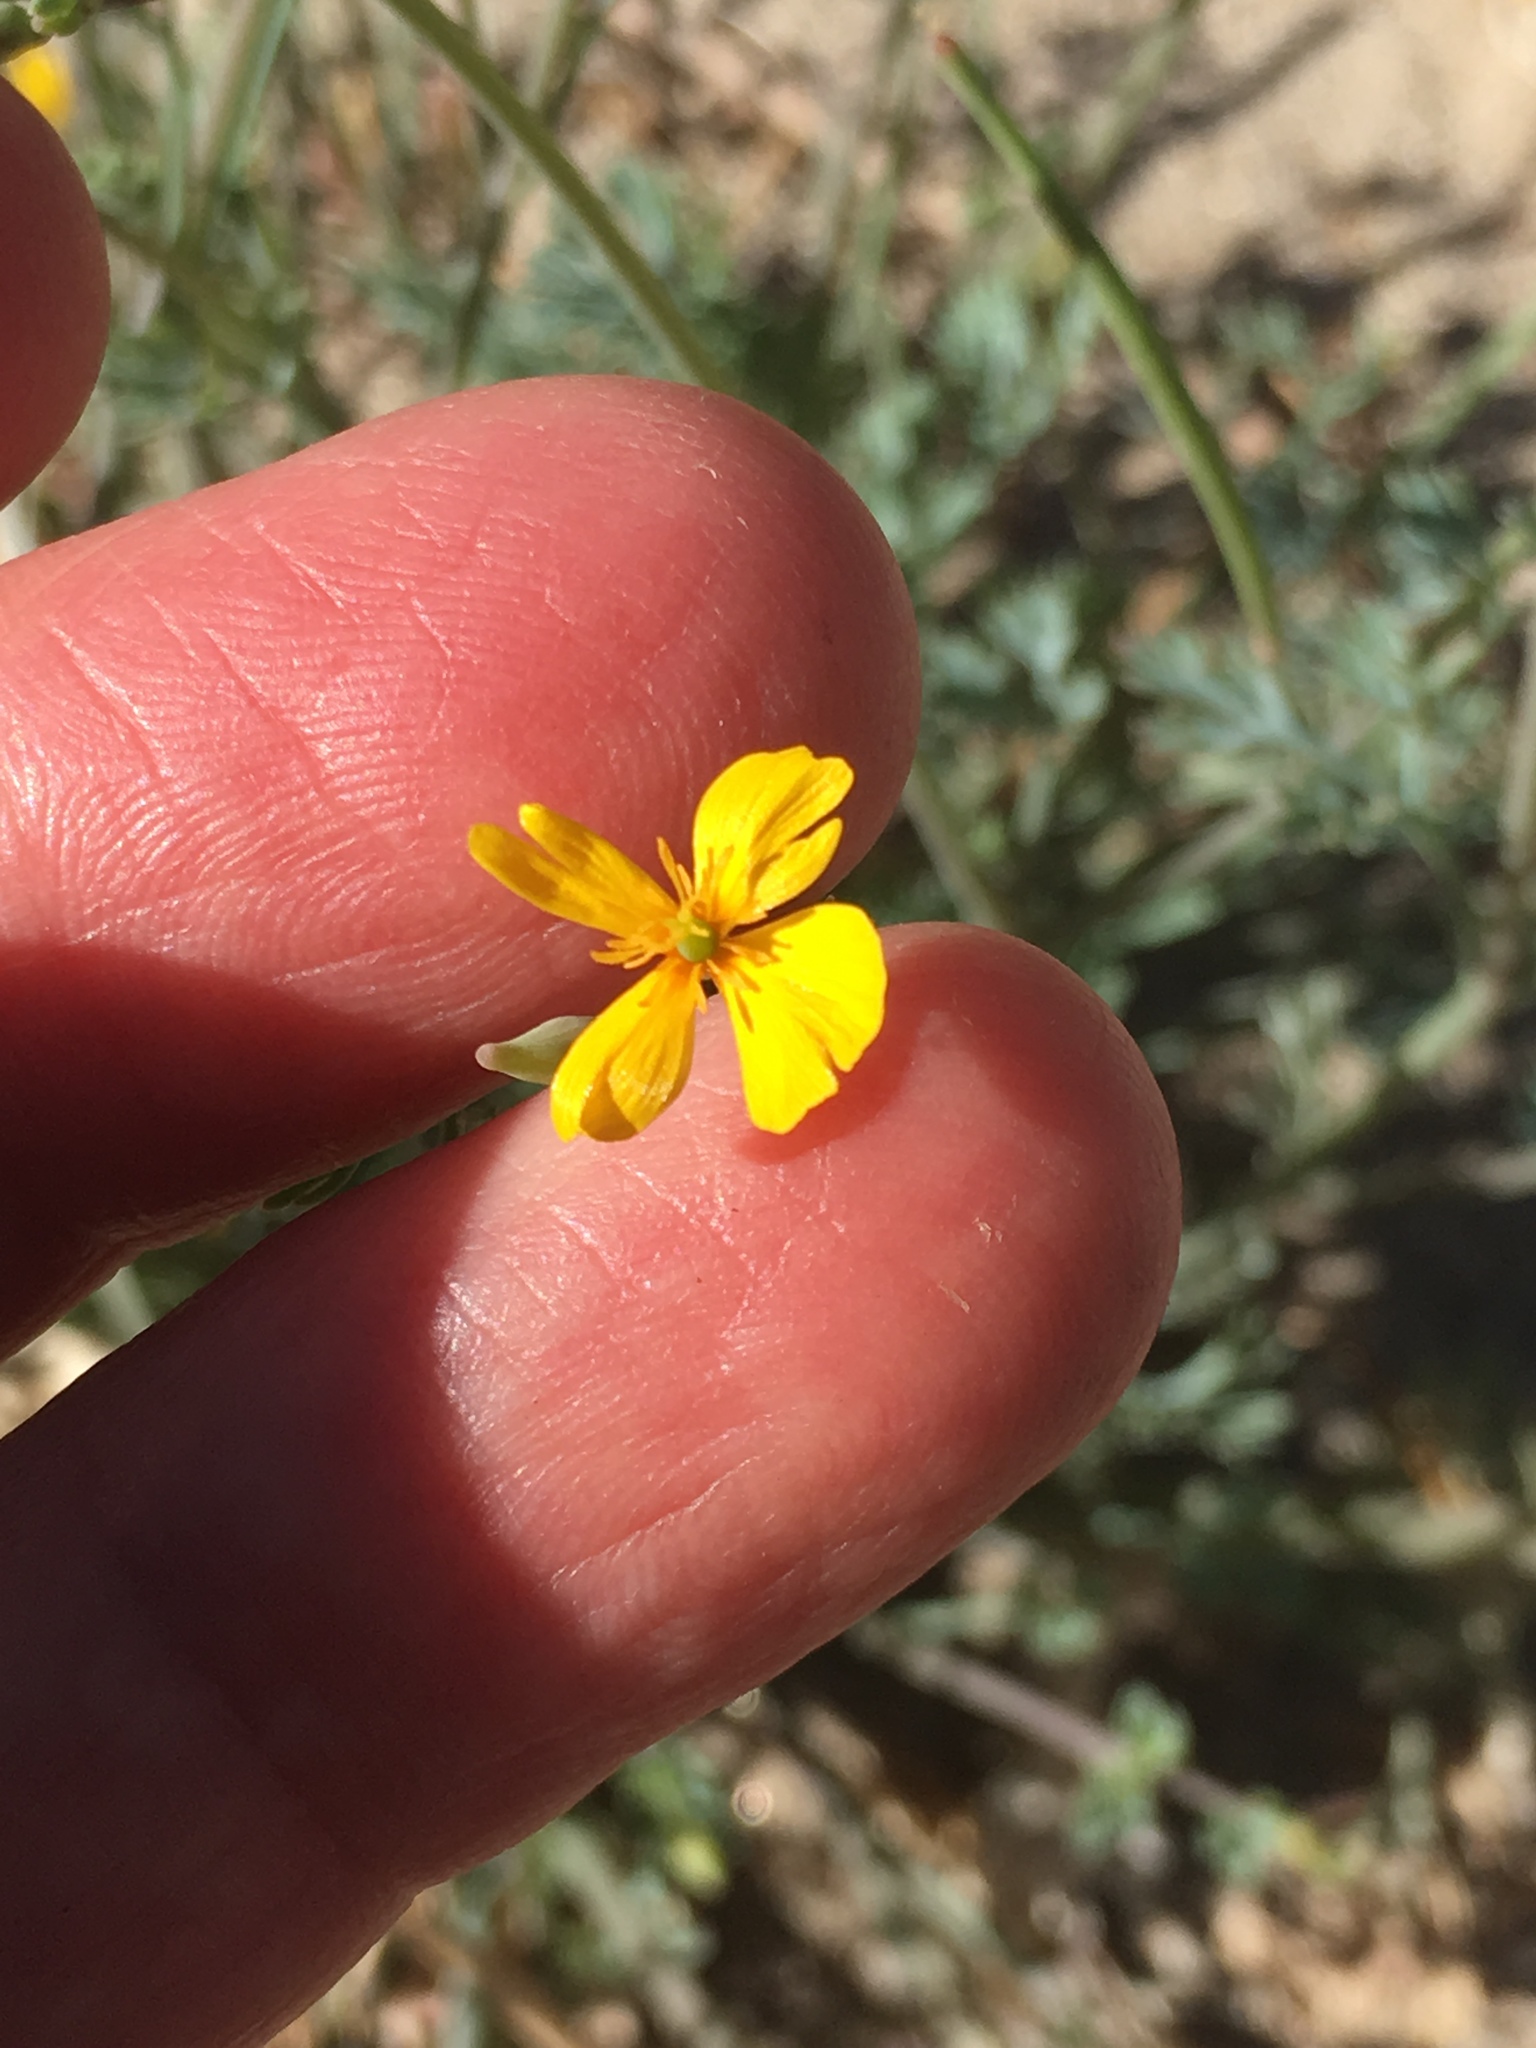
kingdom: Plantae
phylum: Tracheophyta
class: Magnoliopsida
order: Ranunculales
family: Papaveraceae
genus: Eschscholzia
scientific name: Eschscholzia minutiflora
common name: Small-flower california-poppy
